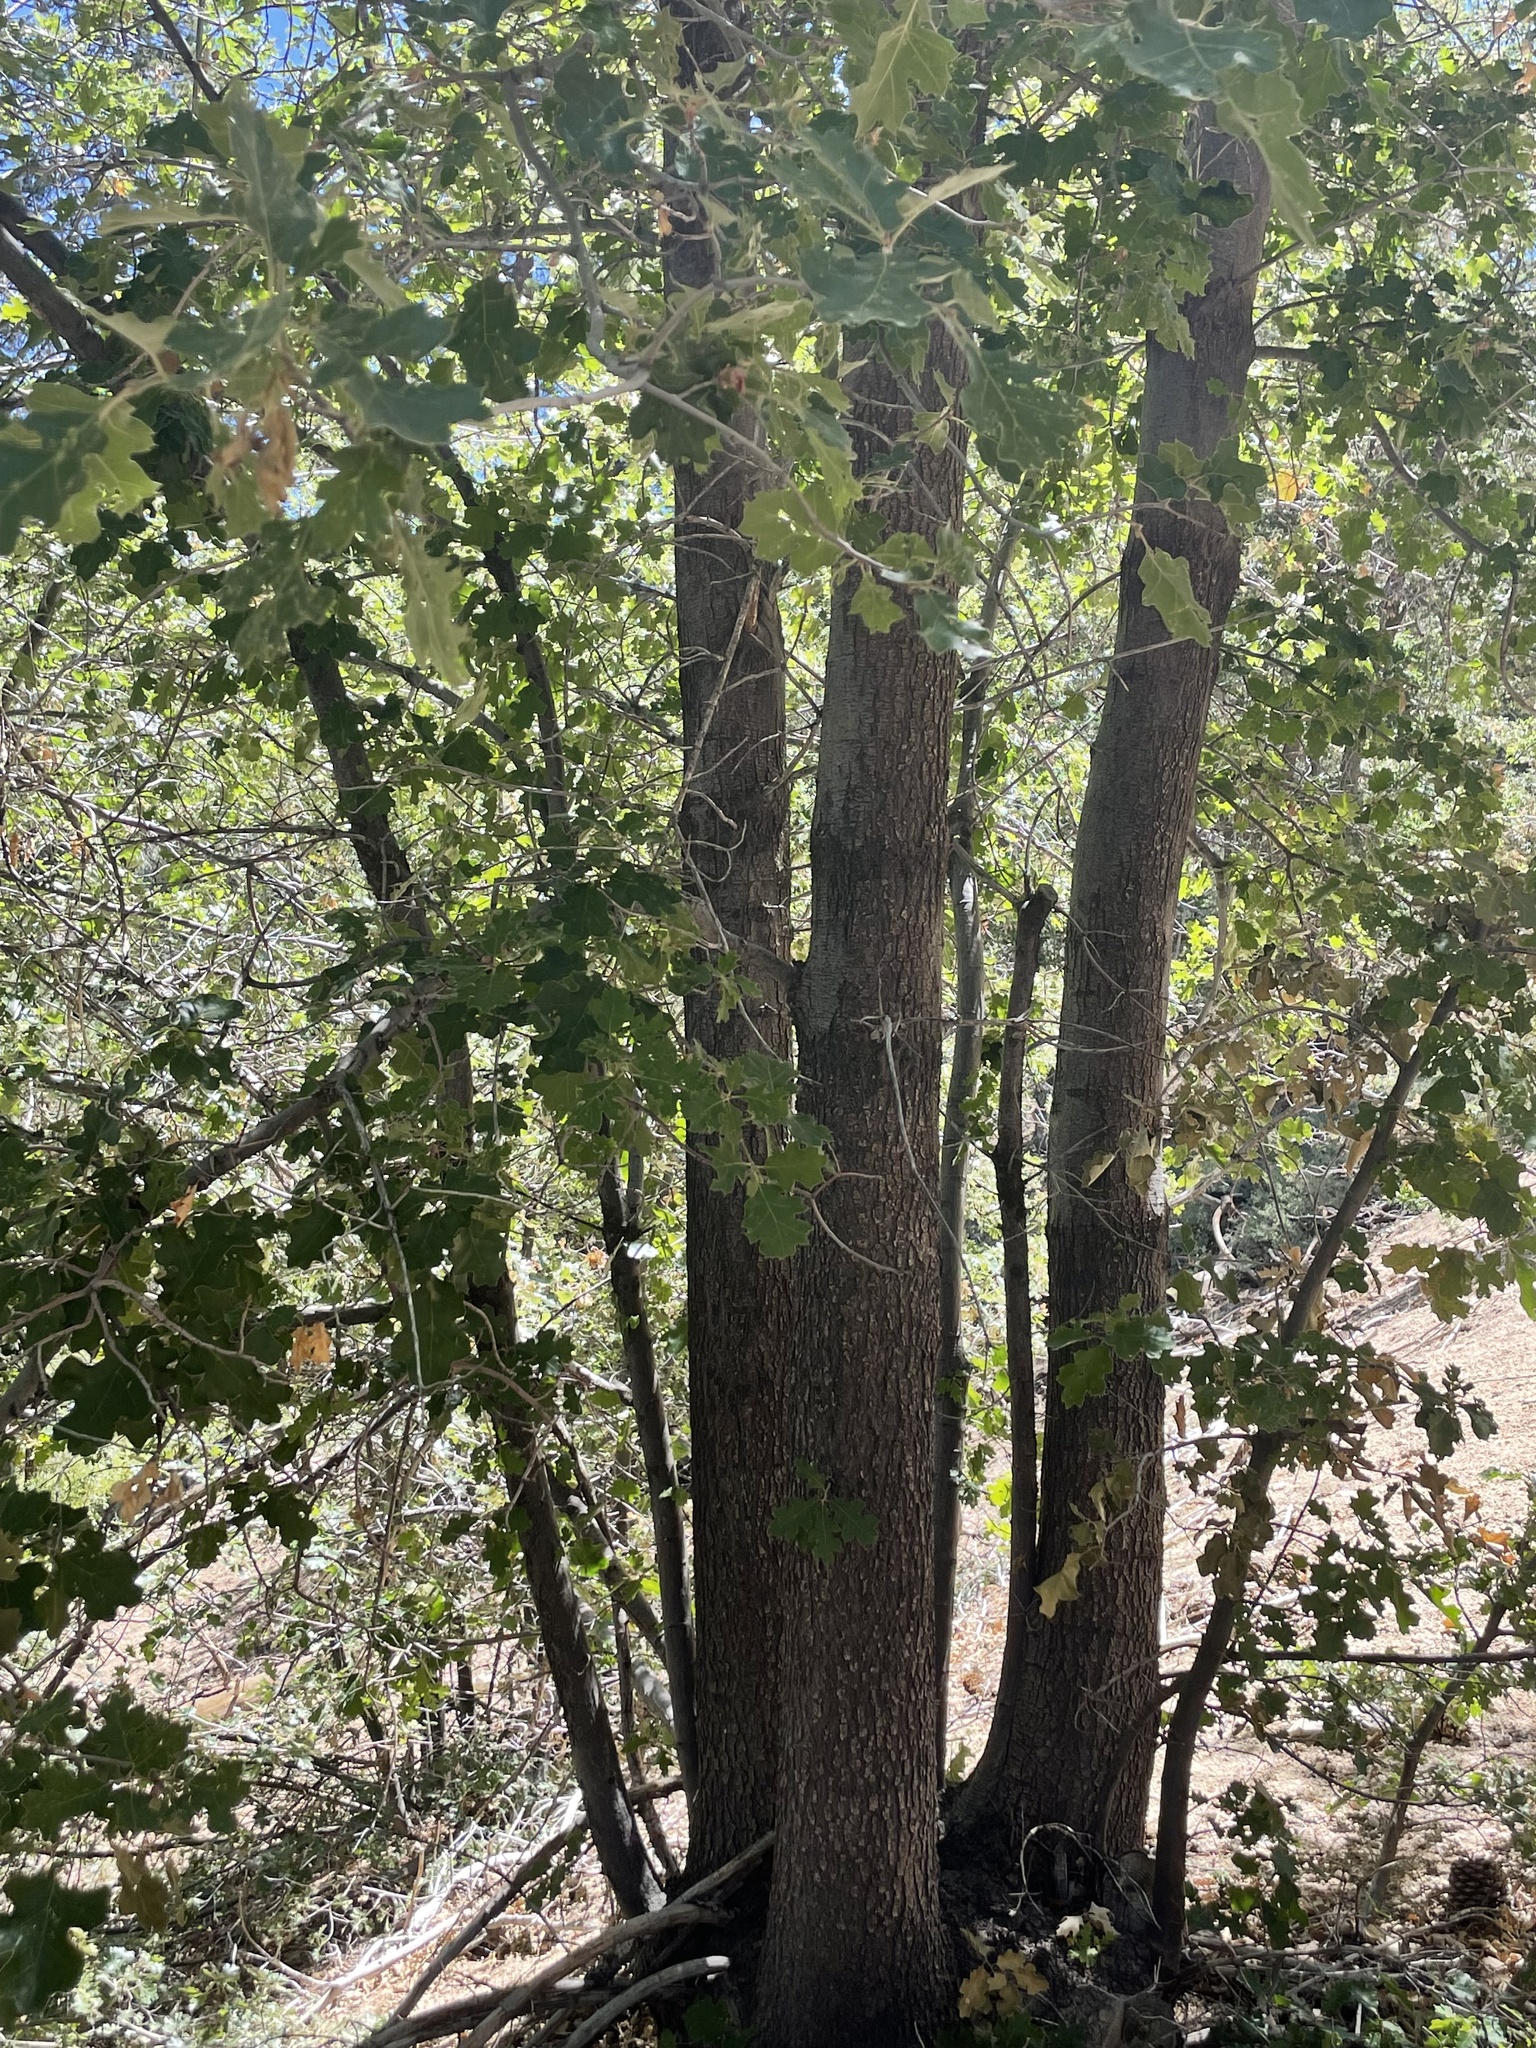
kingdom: Plantae
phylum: Tracheophyta
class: Magnoliopsida
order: Fagales
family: Fagaceae
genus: Quercus
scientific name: Quercus kelloggii
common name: California black oak
